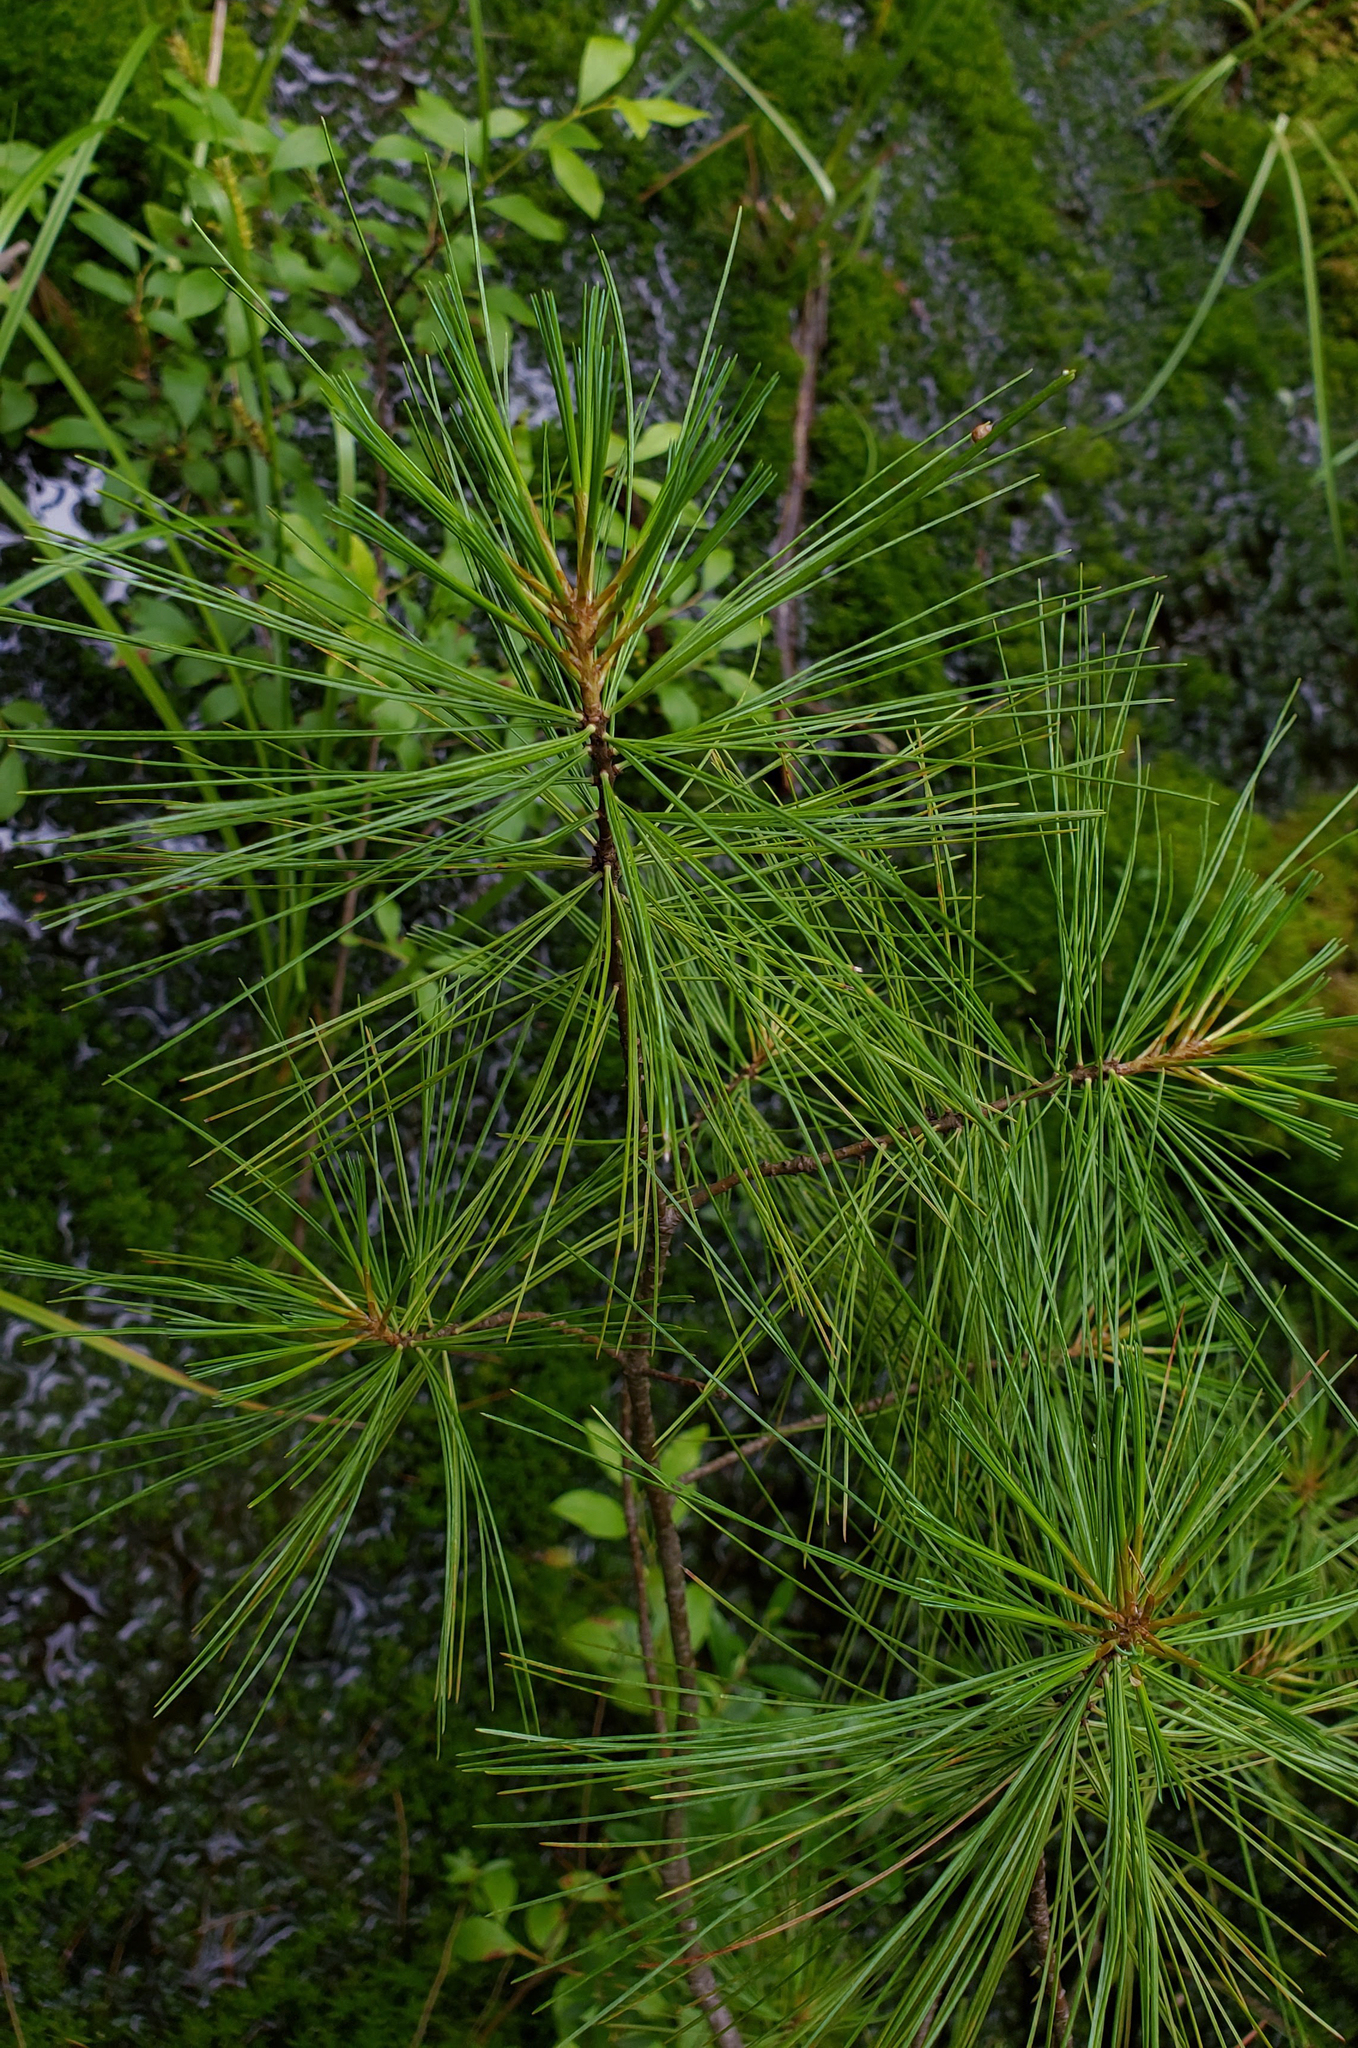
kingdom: Plantae
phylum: Tracheophyta
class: Pinopsida
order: Pinales
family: Pinaceae
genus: Pinus
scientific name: Pinus strobus
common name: Weymouth pine
